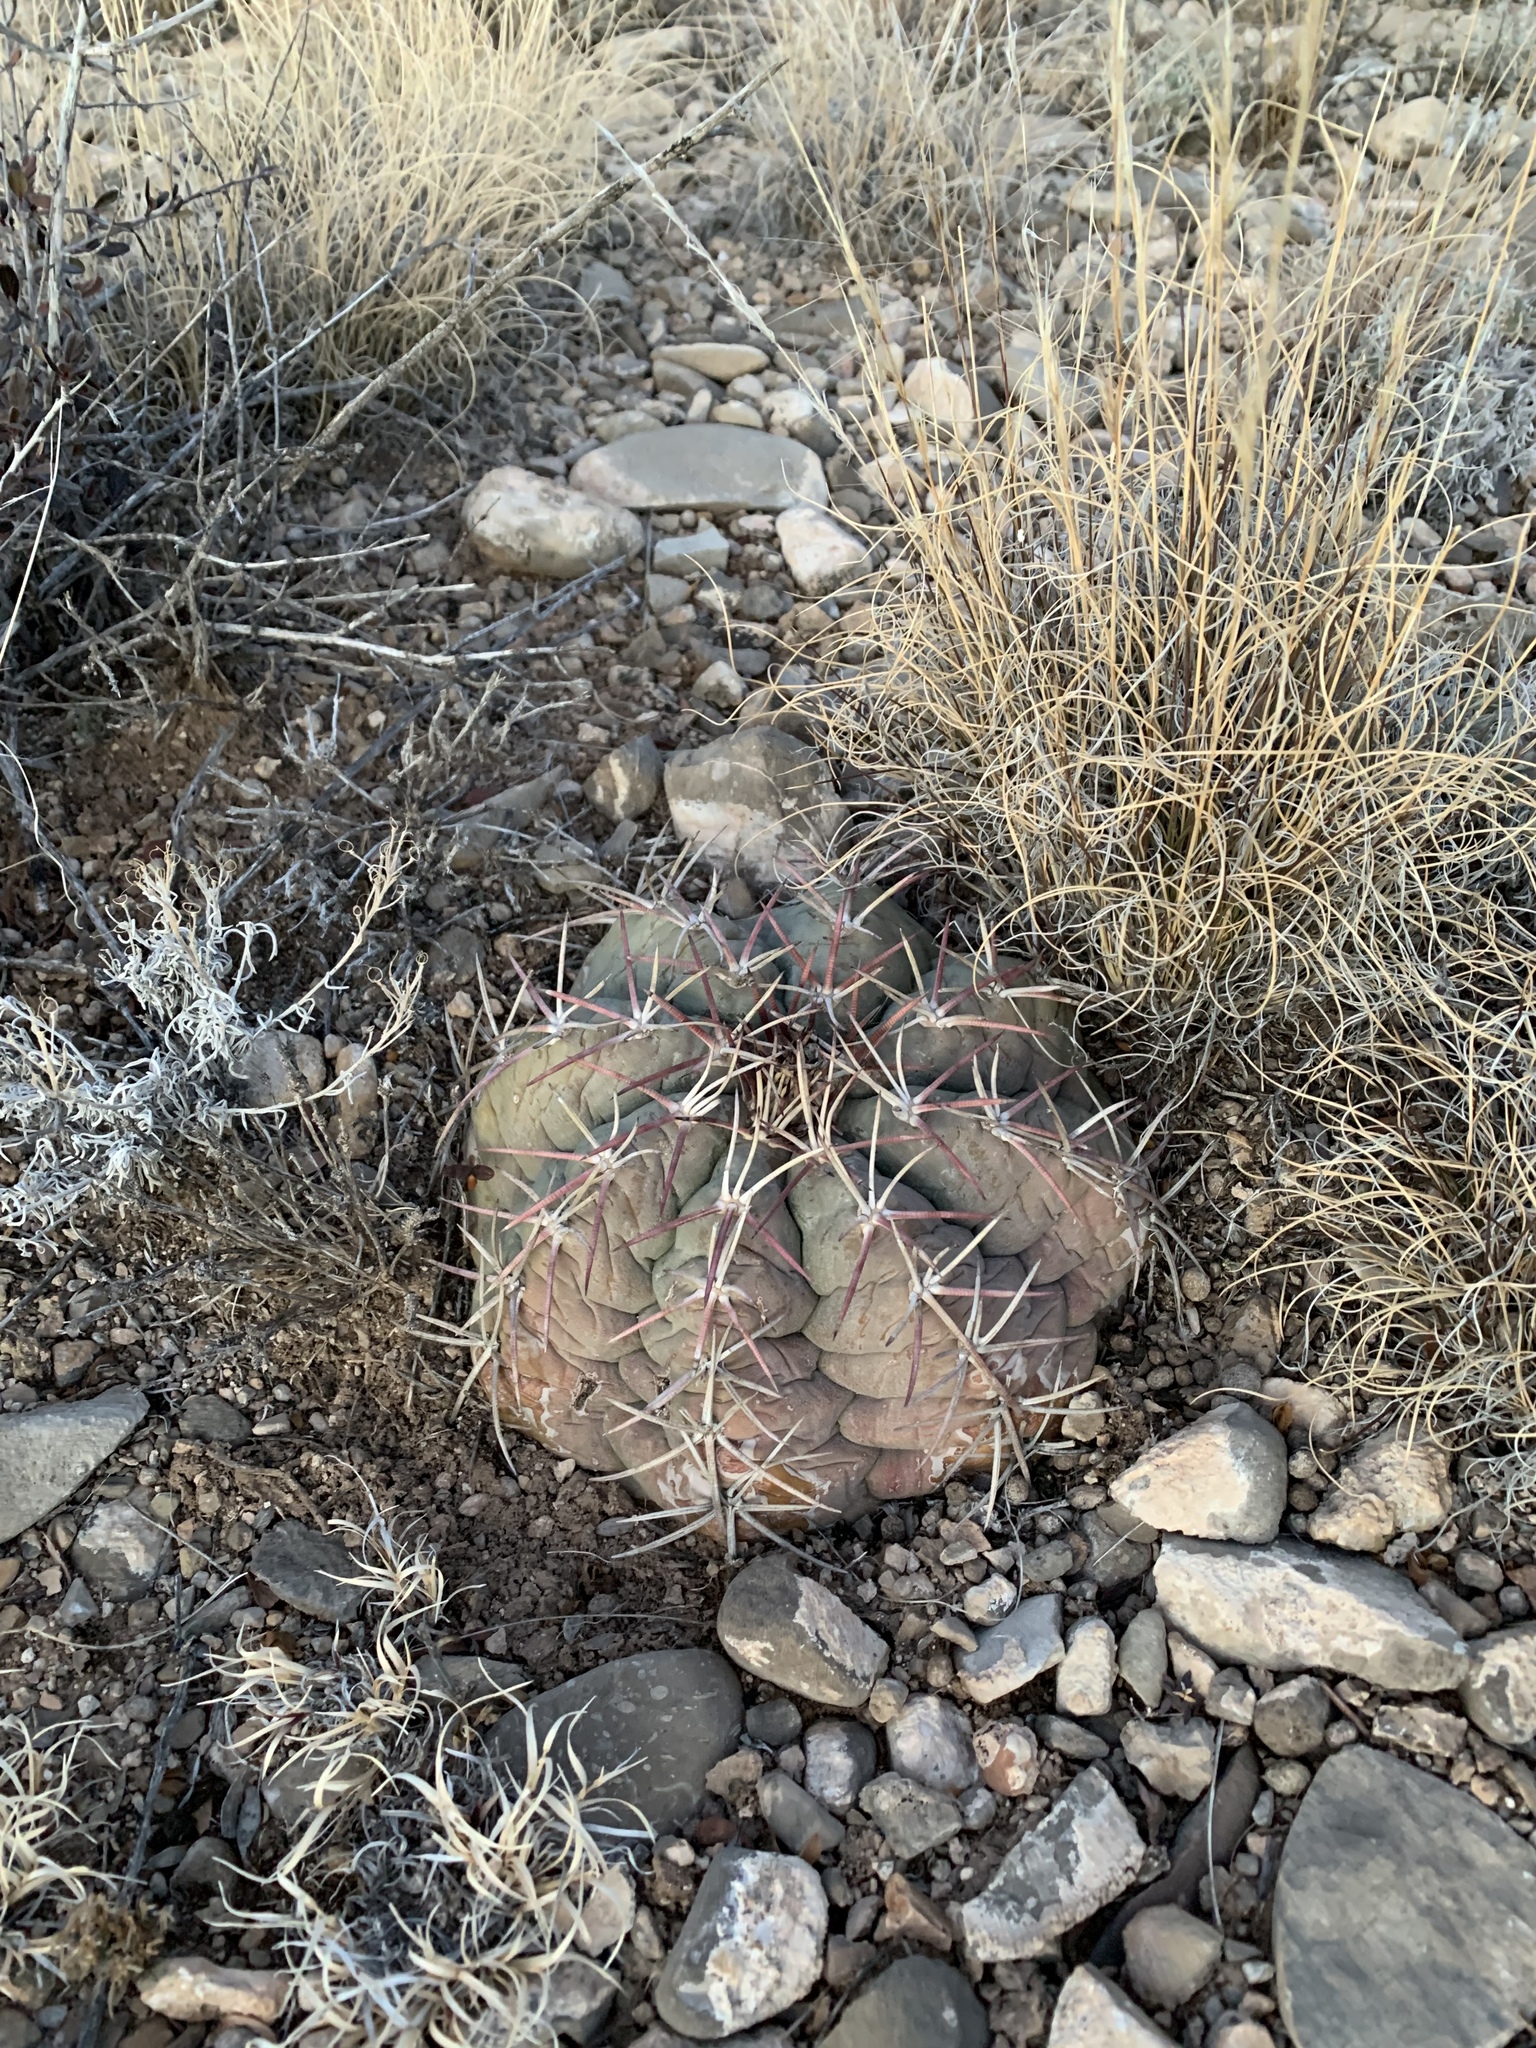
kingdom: Plantae
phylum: Tracheophyta
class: Magnoliopsida
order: Caryophyllales
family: Cactaceae
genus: Echinocactus
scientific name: Echinocactus horizonthalonius
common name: Devilshead
